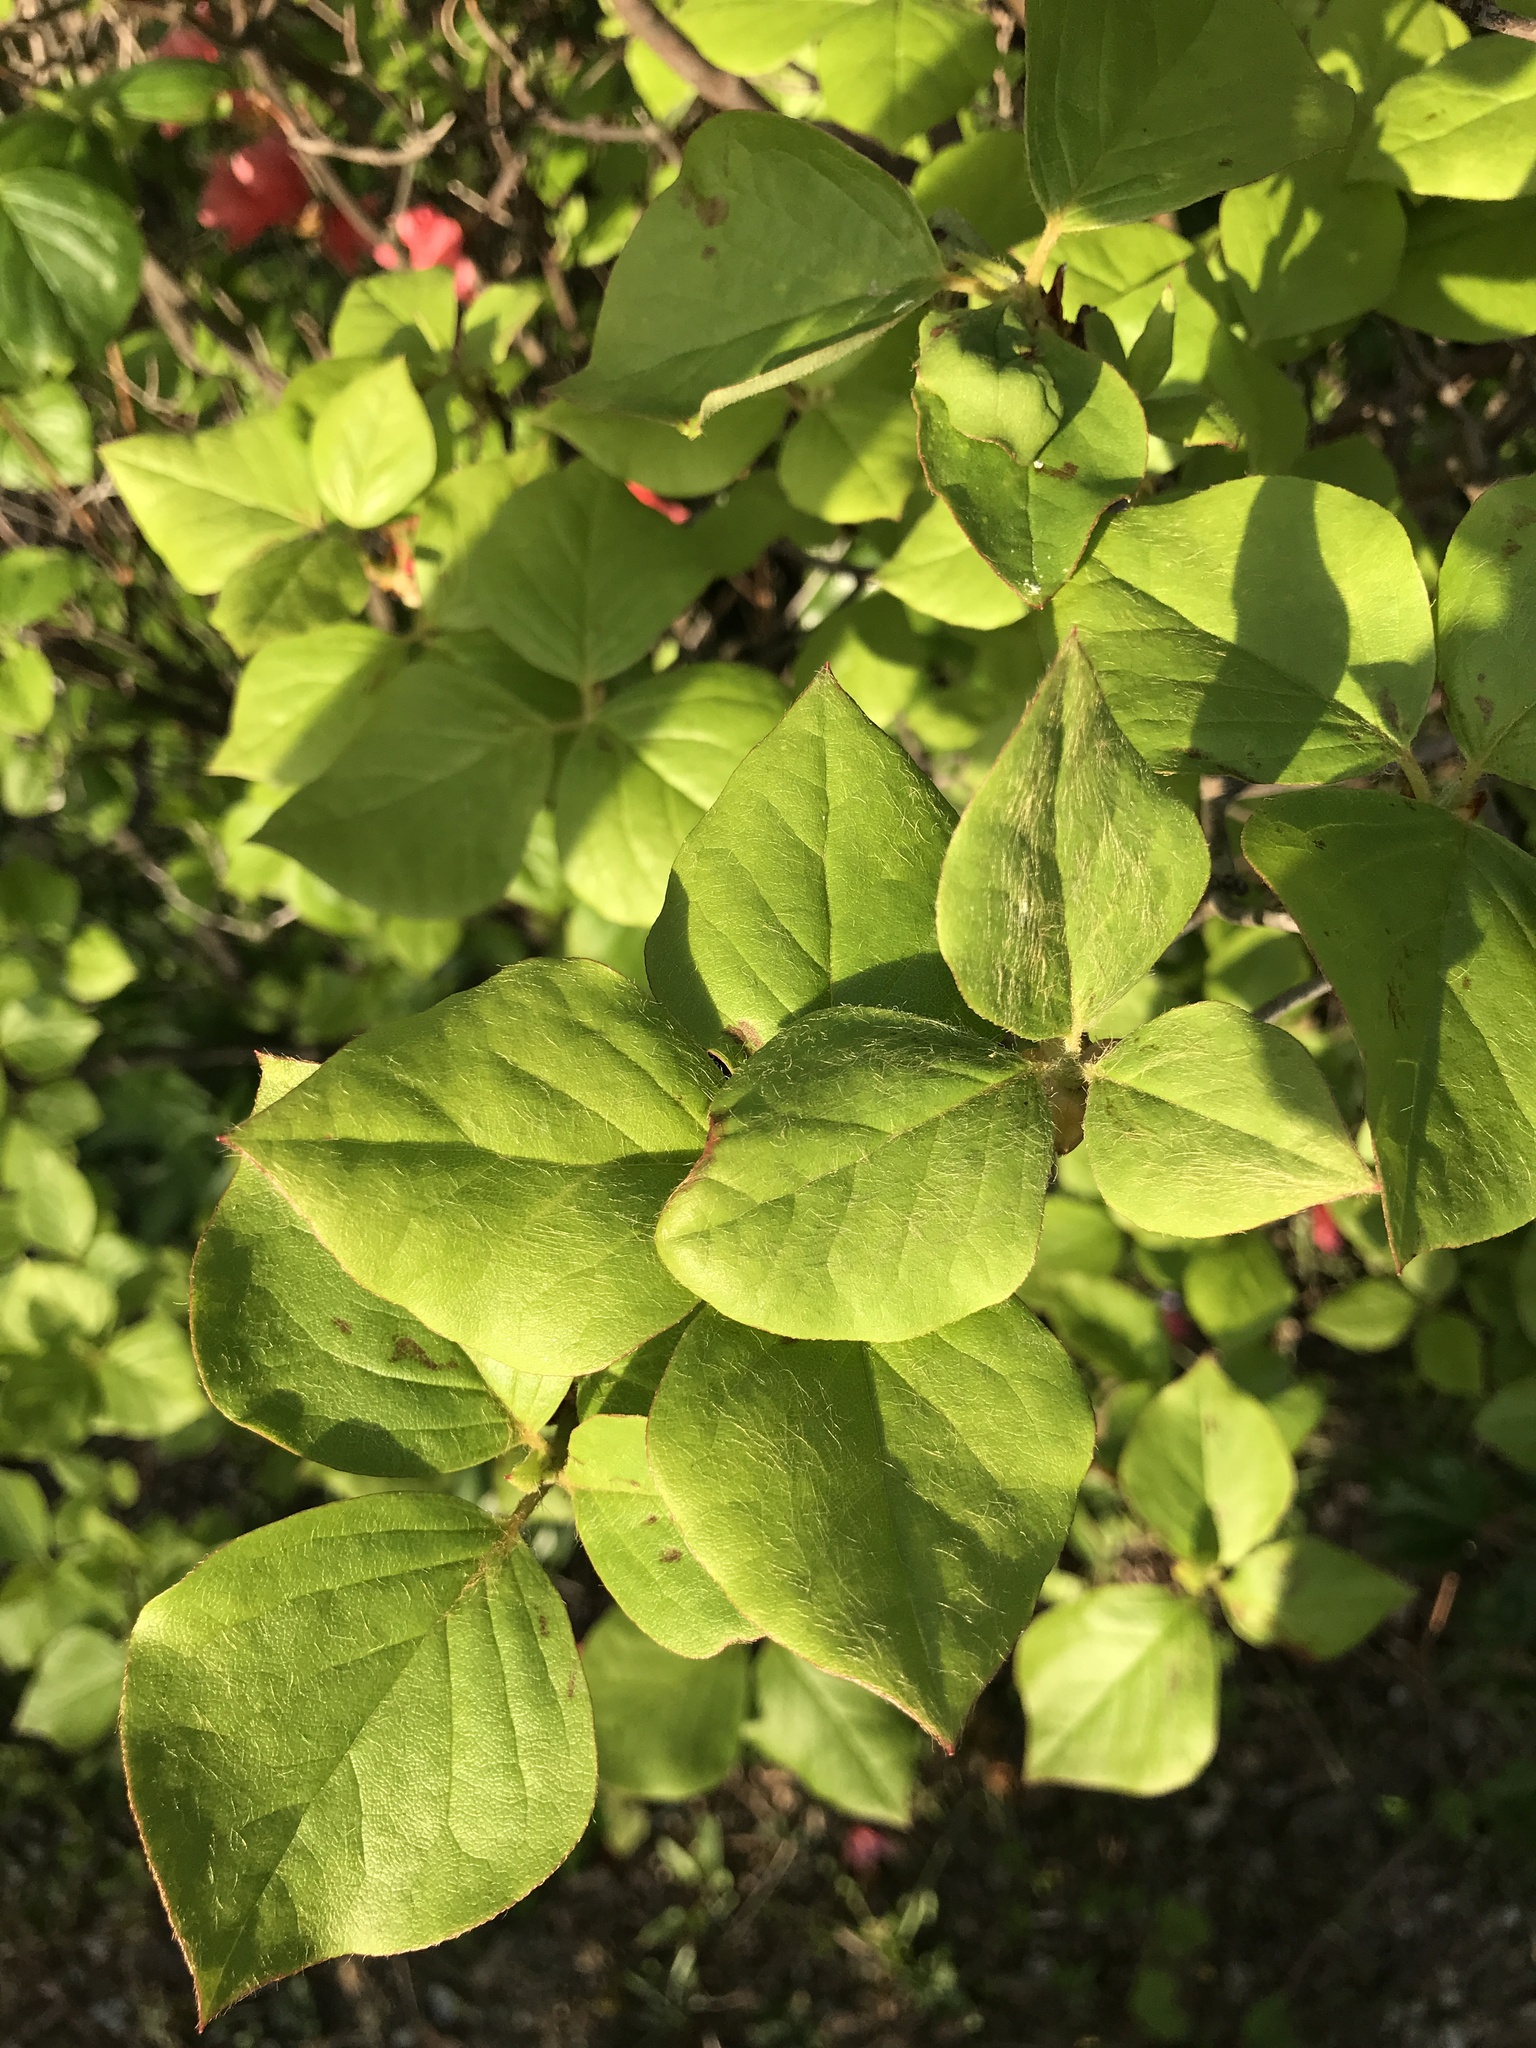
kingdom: Plantae
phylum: Tracheophyta
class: Magnoliopsida
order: Ericales
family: Ericaceae
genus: Rhododendron
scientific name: Rhododendron weyrichii
